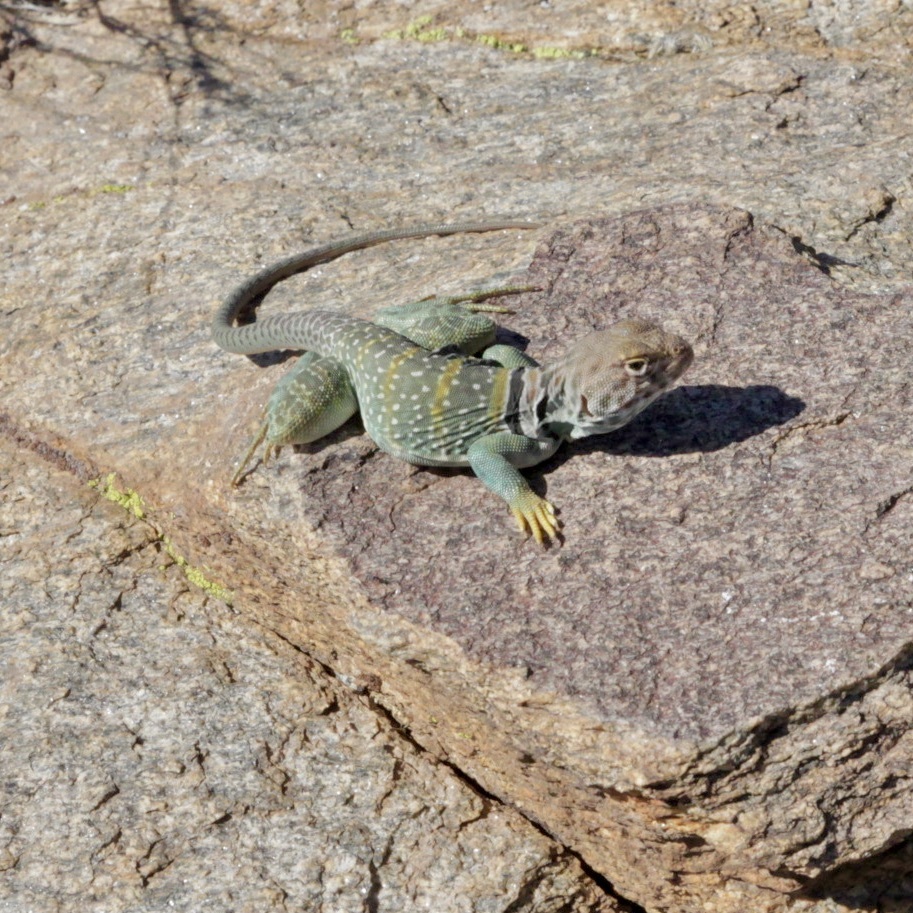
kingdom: Animalia
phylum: Chordata
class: Squamata
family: Crotaphytidae
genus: Crotaphytus
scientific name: Crotaphytus collaris
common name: Collared lizard
